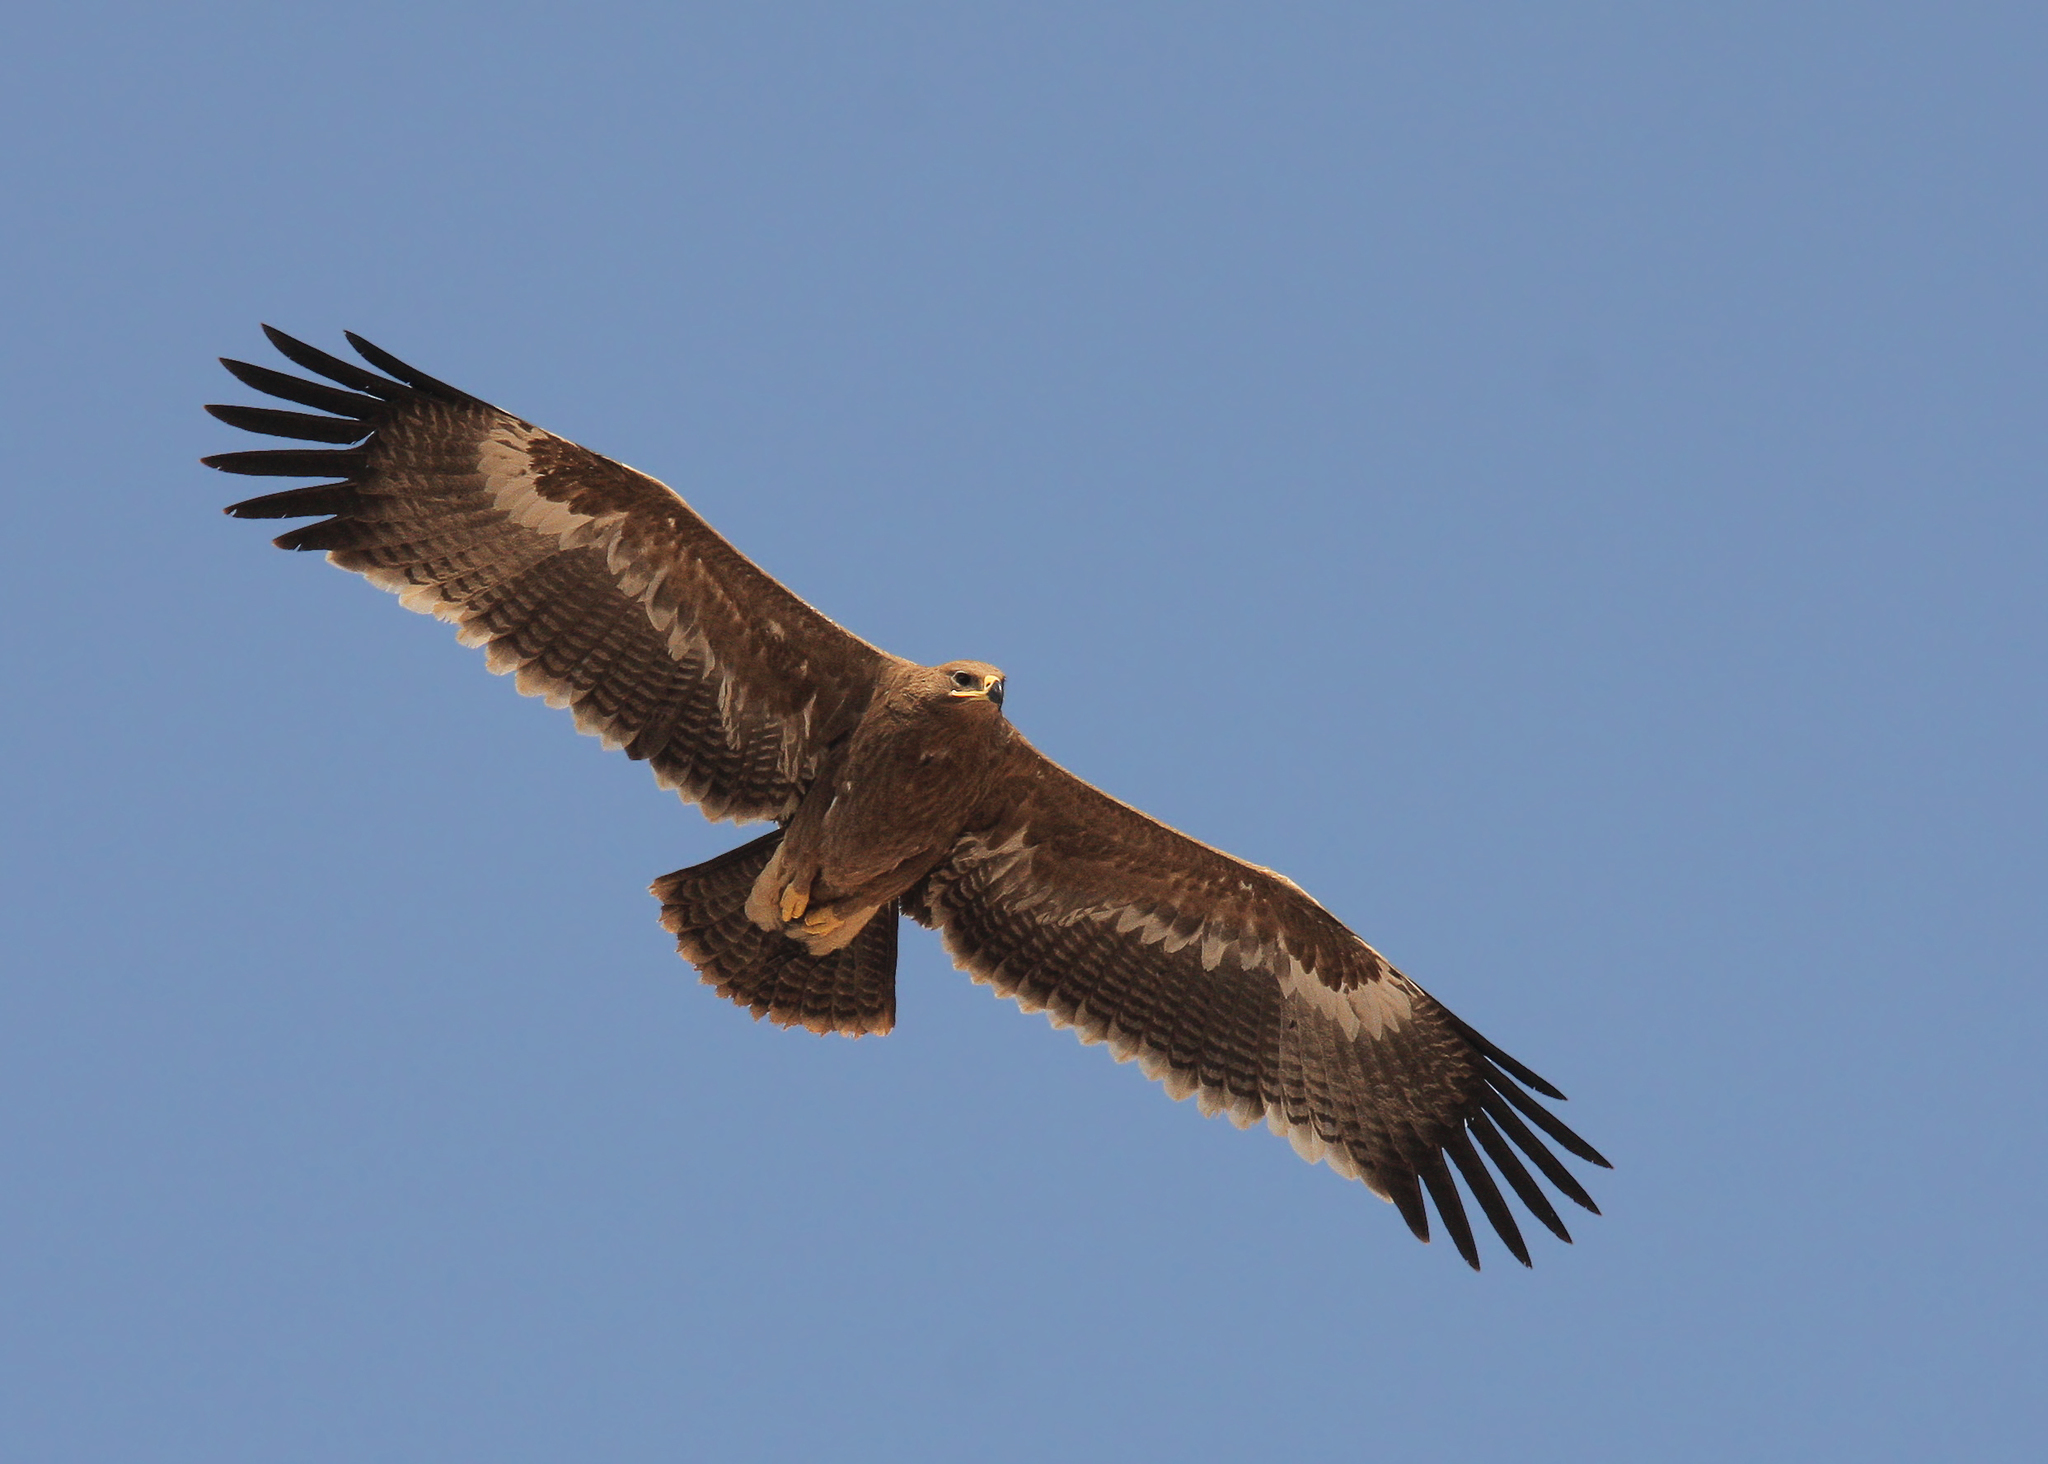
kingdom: Animalia
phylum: Chordata
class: Aves
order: Accipitriformes
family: Accipitridae
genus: Aquila
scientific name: Aquila nipalensis
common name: Steppe eagle
